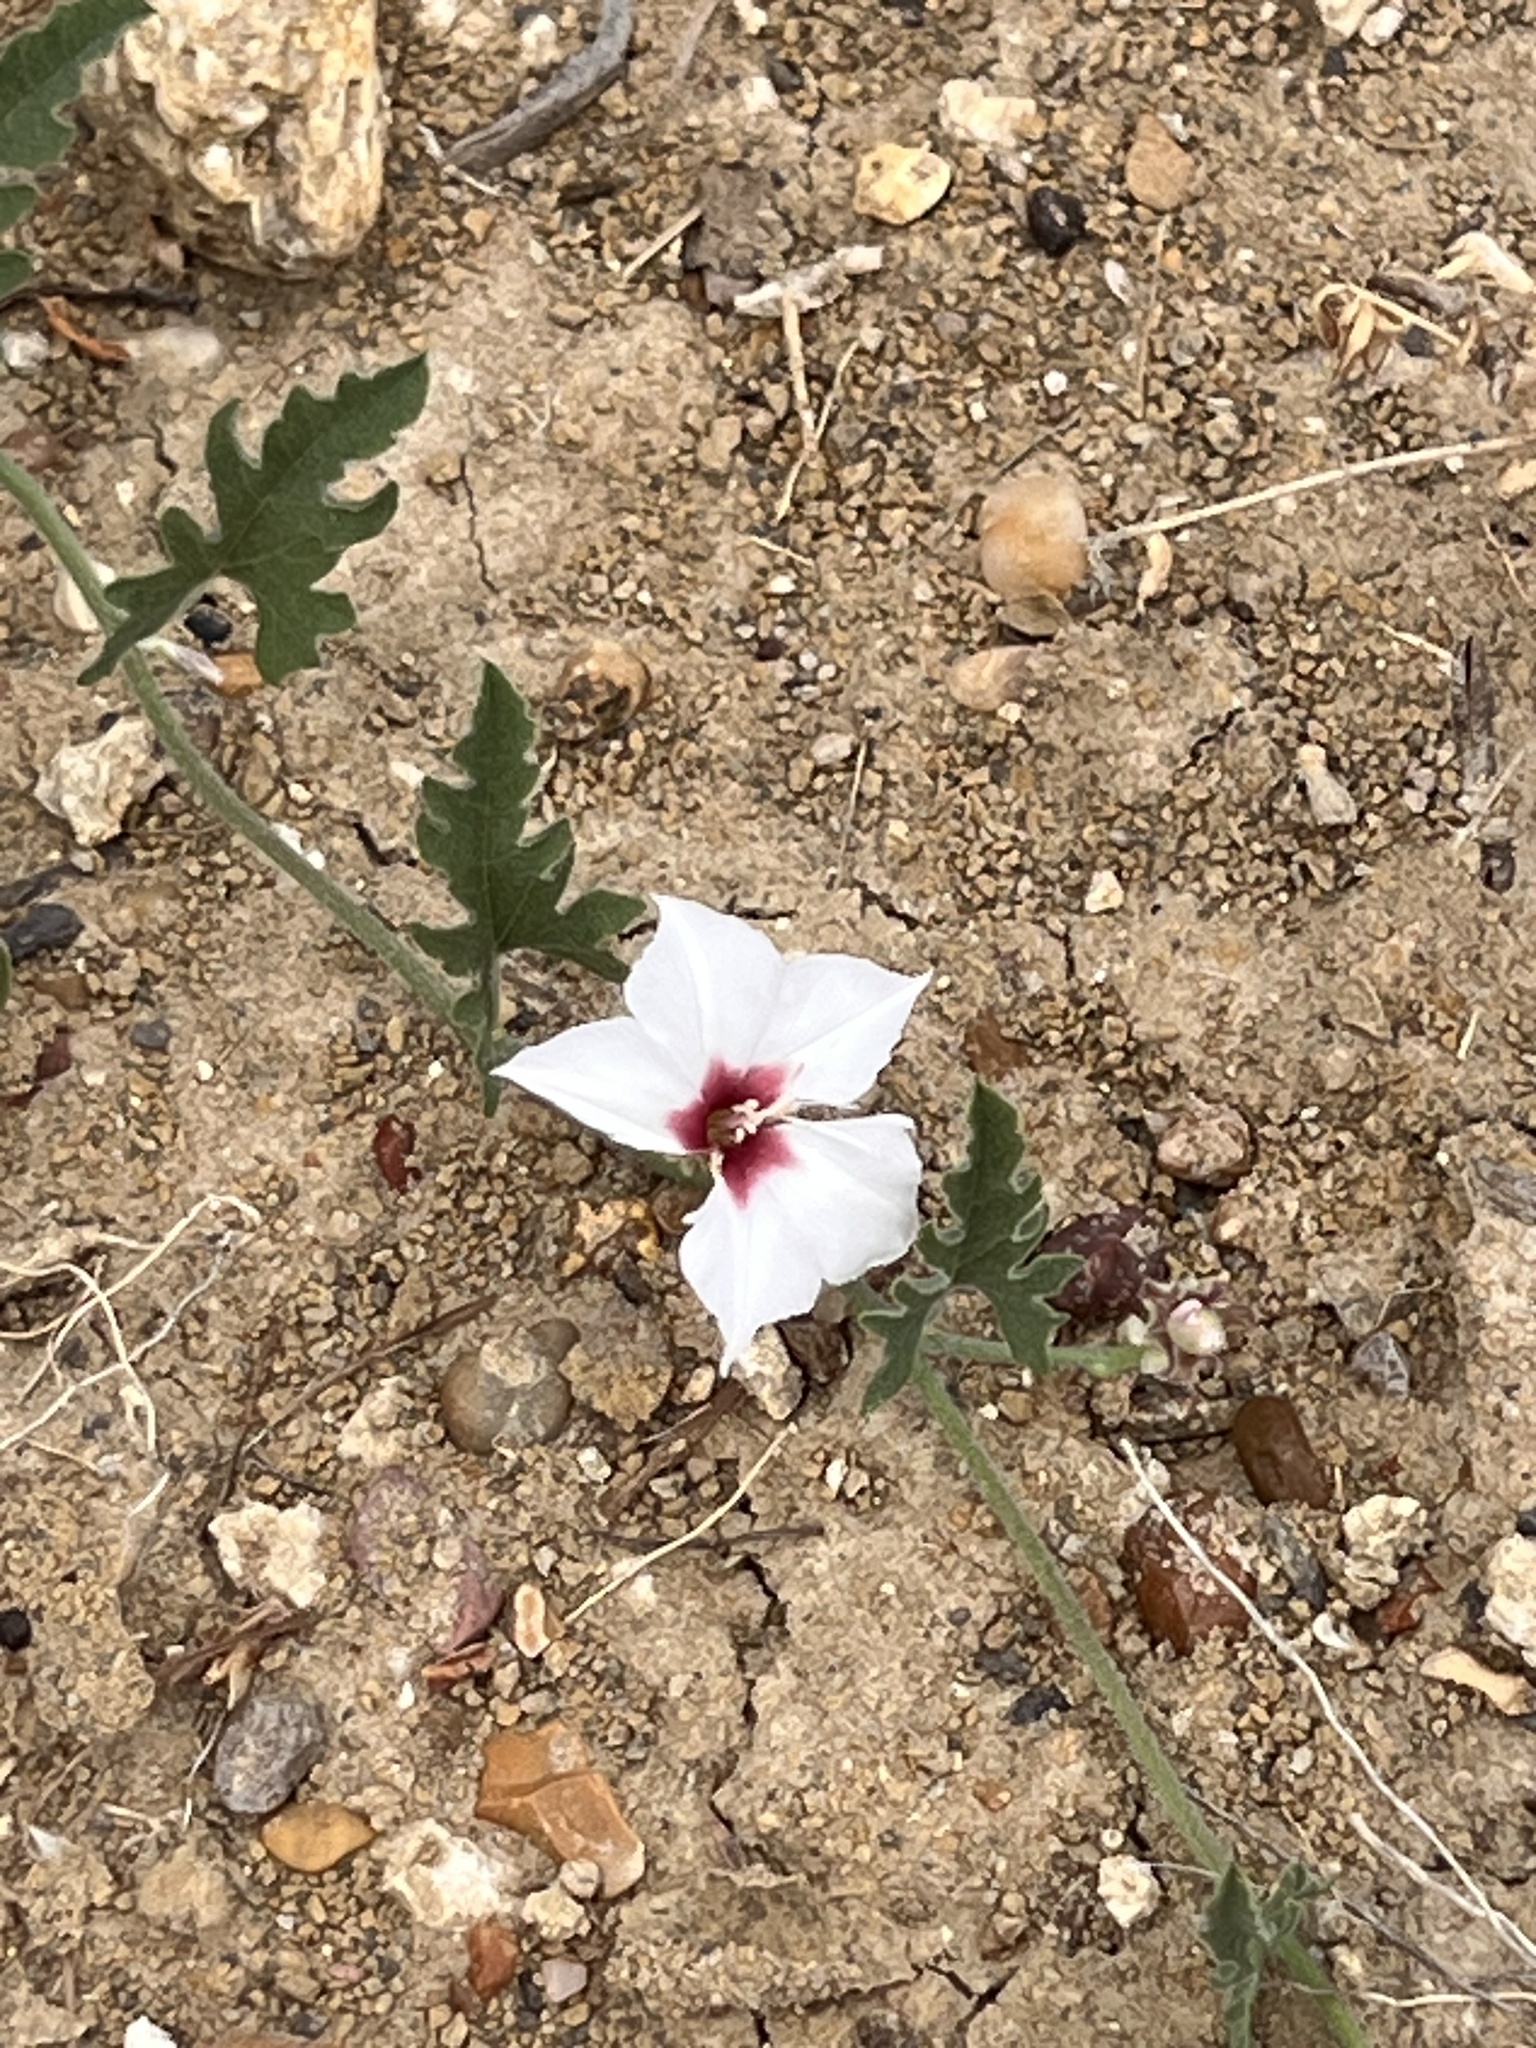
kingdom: Plantae
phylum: Tracheophyta
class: Magnoliopsida
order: Solanales
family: Convolvulaceae
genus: Convolvulus
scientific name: Convolvulus equitans
